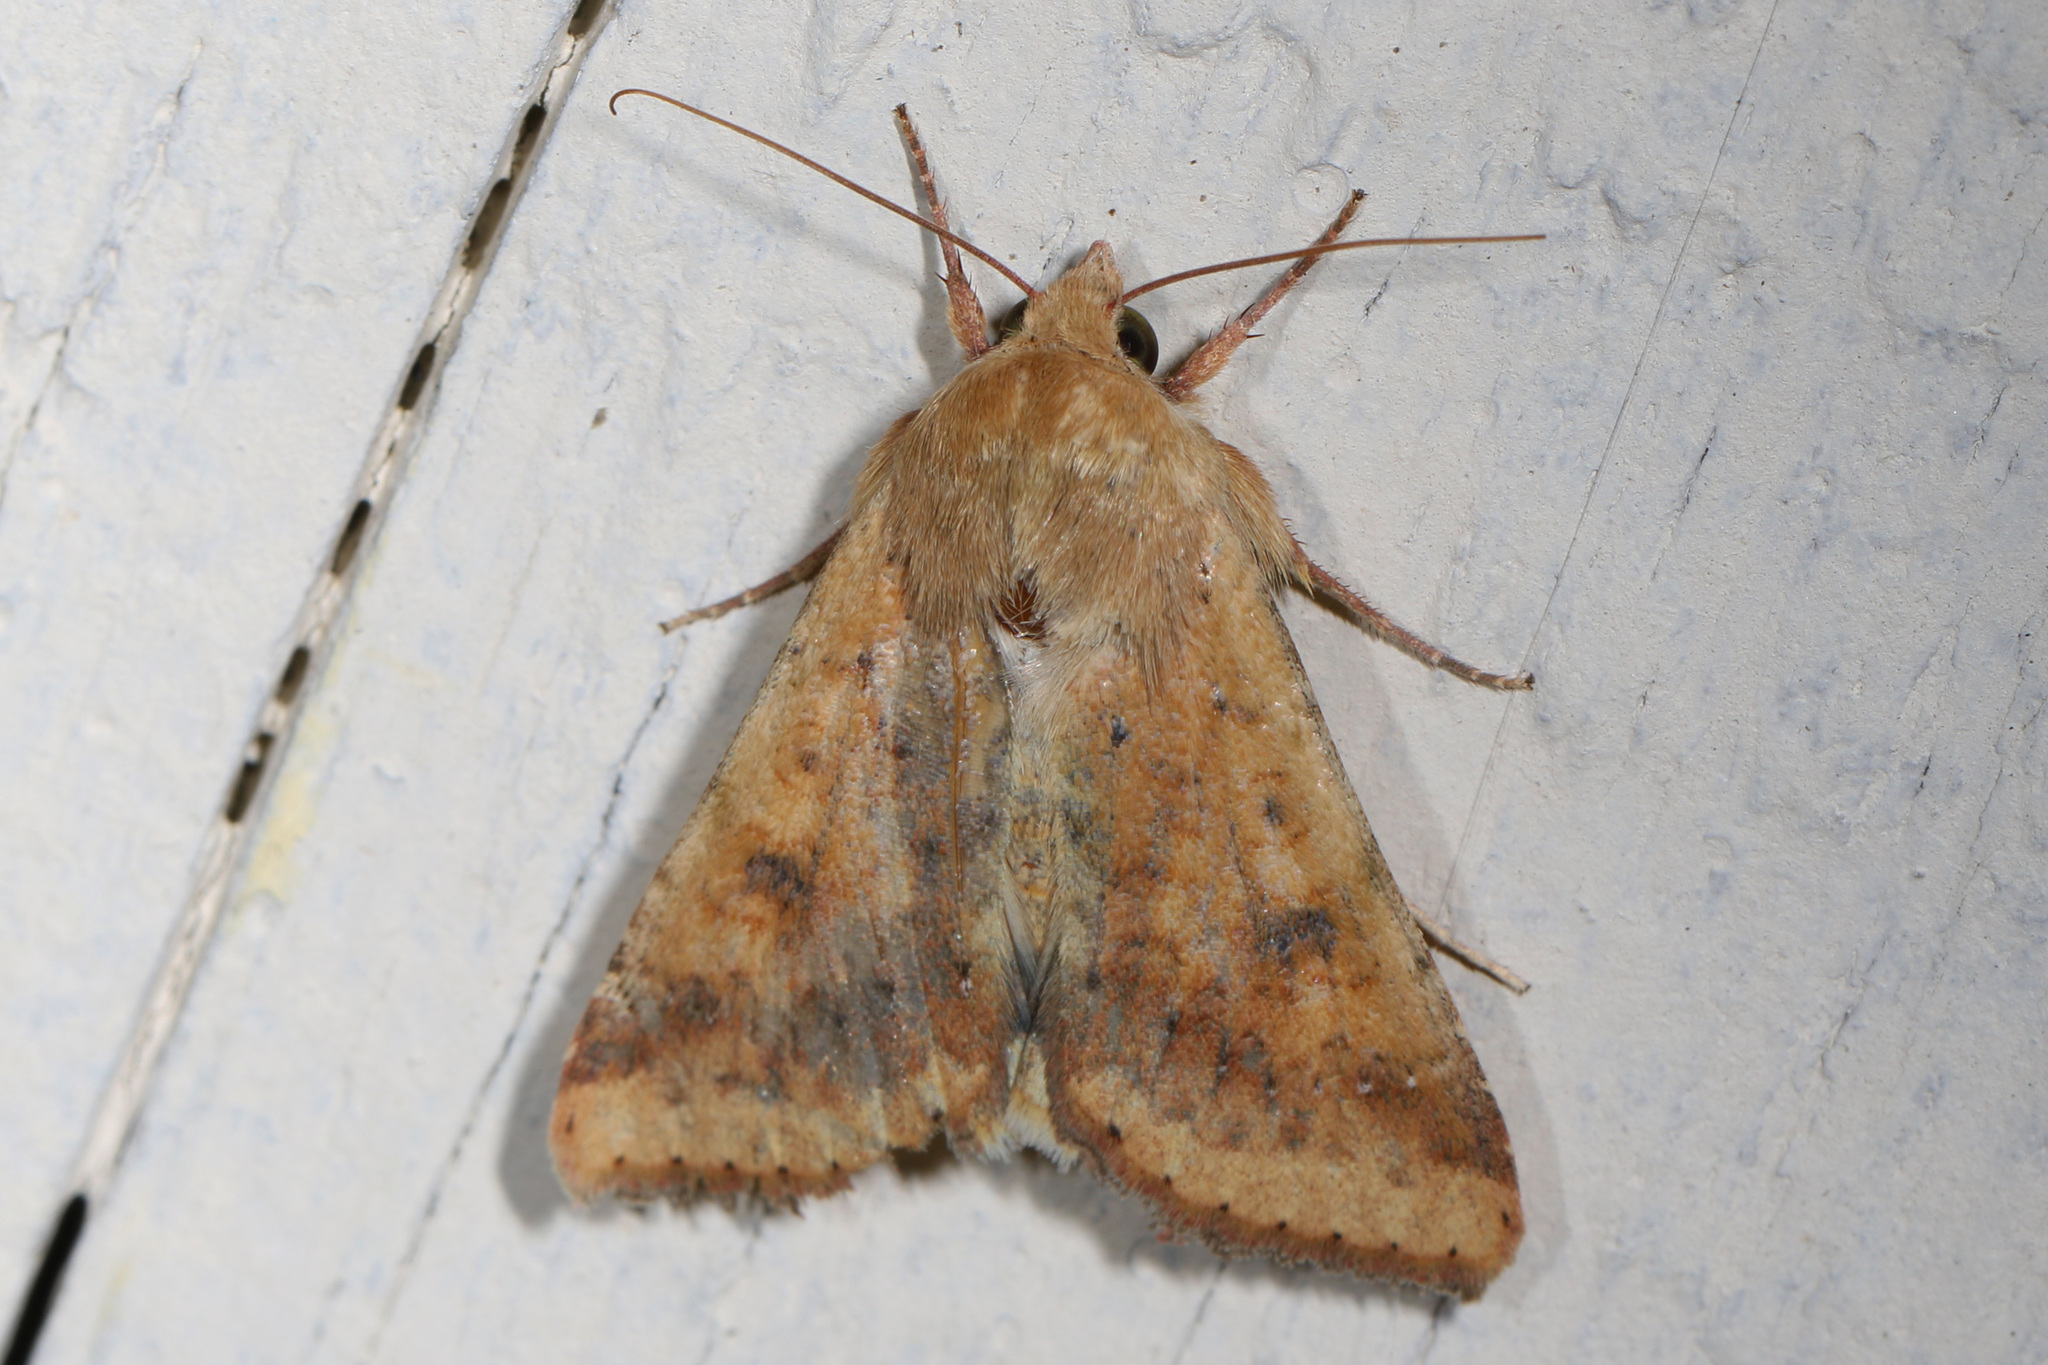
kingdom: Animalia
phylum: Arthropoda
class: Insecta
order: Lepidoptera
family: Noctuidae
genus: Helicoverpa
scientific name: Helicoverpa zea
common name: Bollworm
